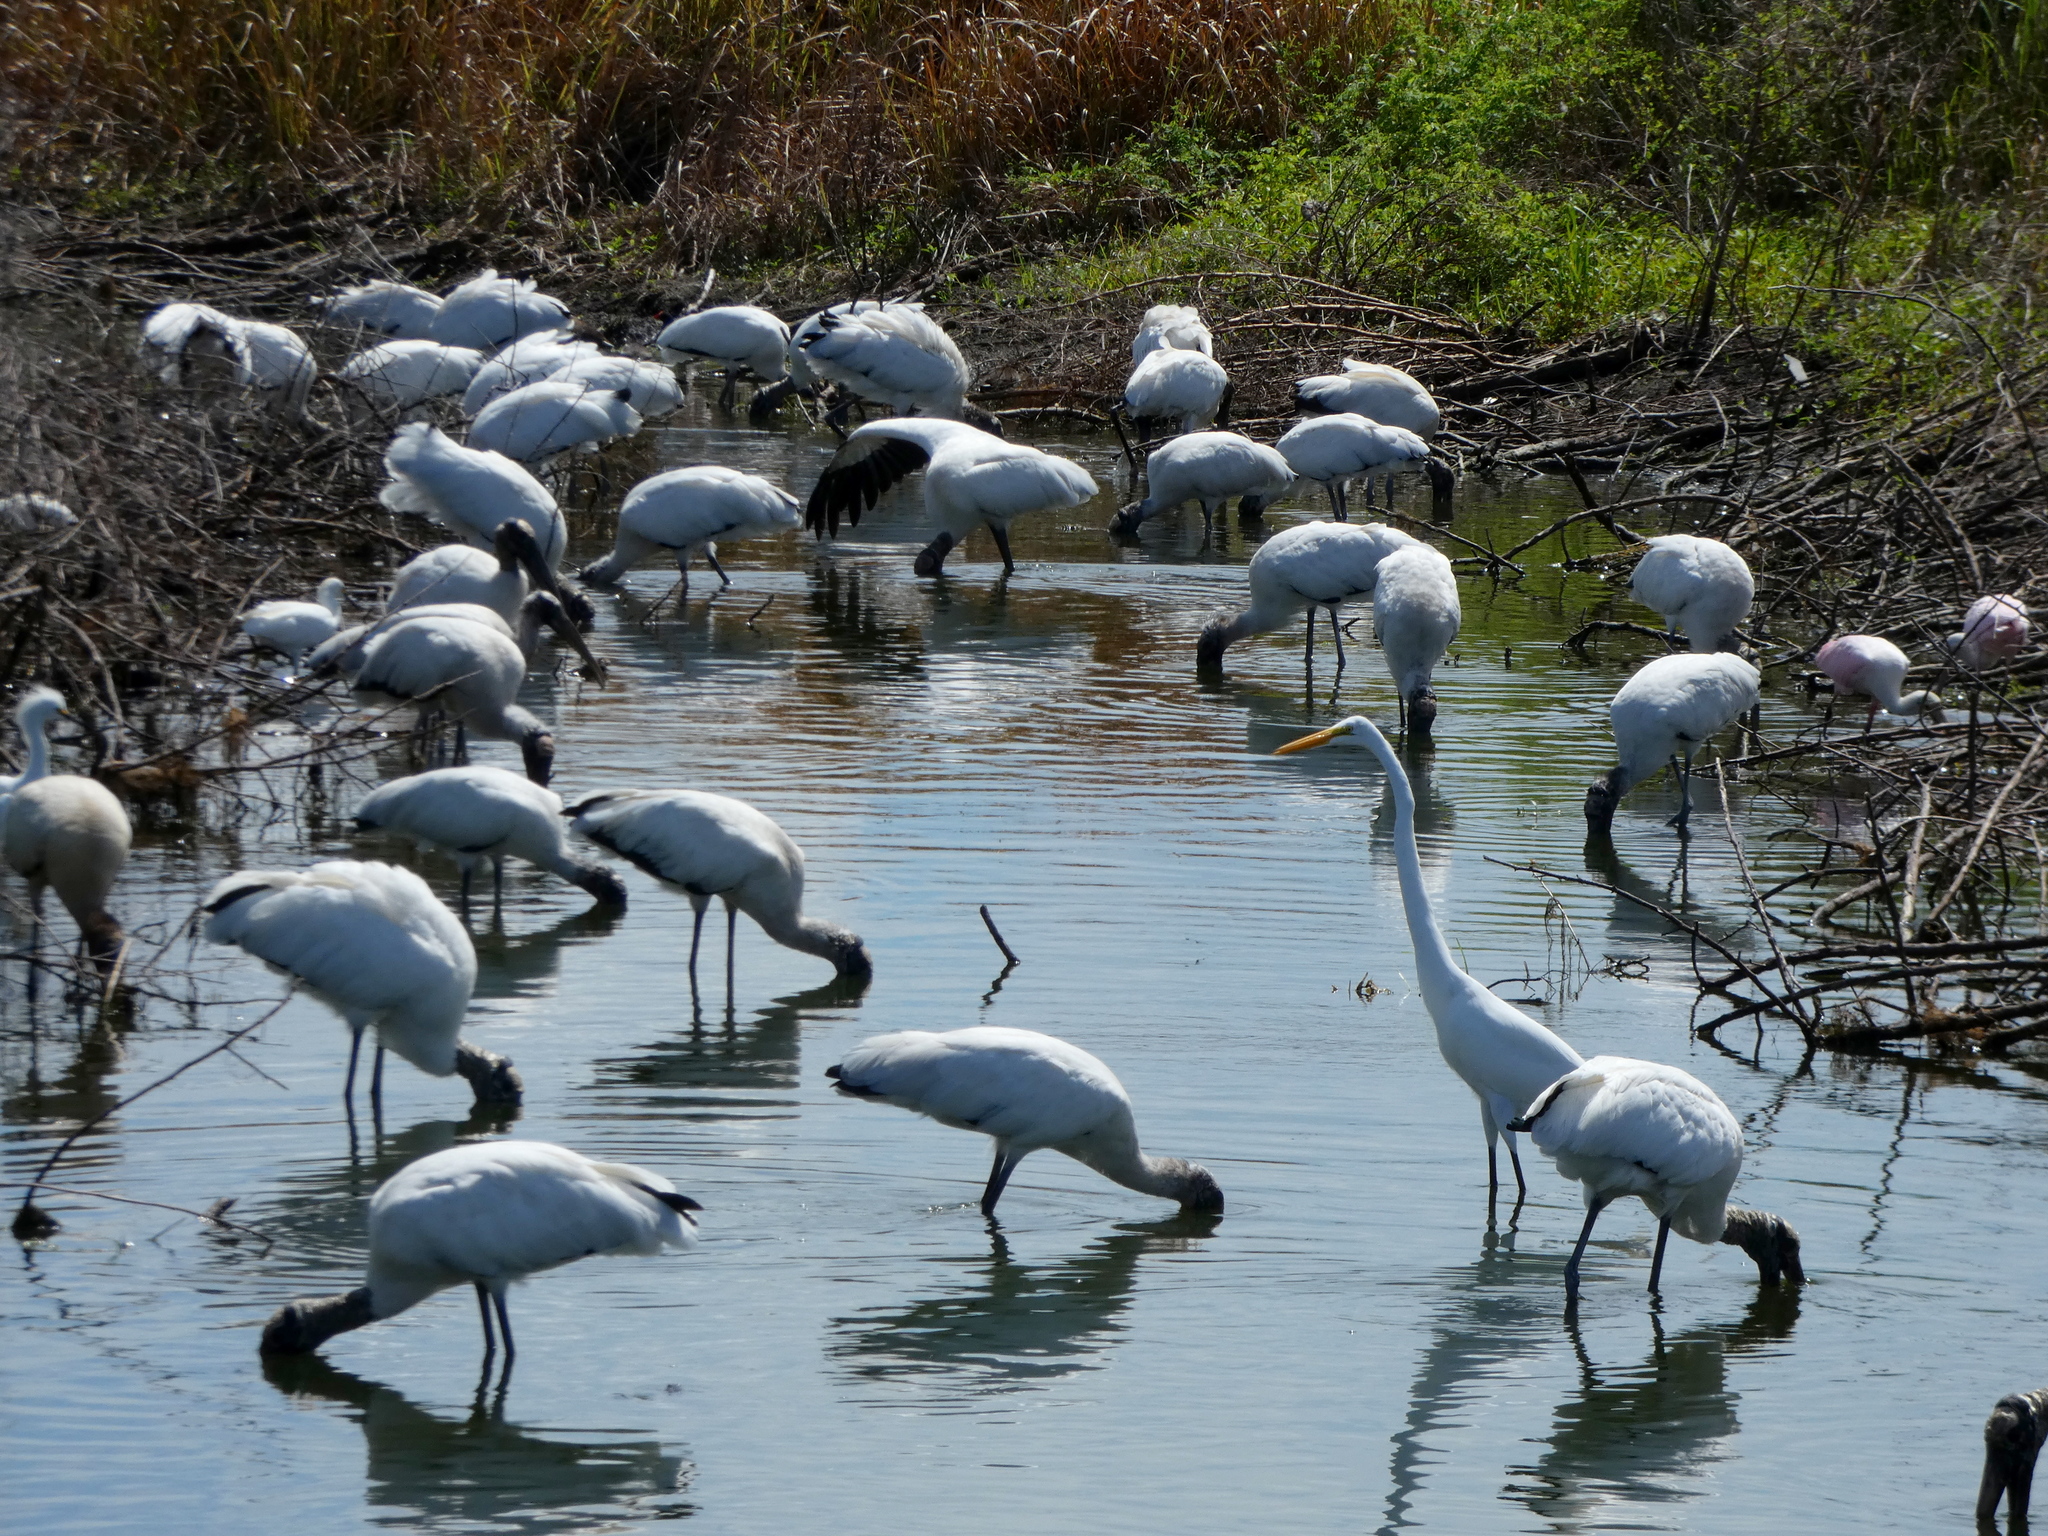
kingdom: Animalia
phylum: Chordata
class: Aves
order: Ciconiiformes
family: Ciconiidae
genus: Mycteria
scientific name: Mycteria americana
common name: Wood stork
